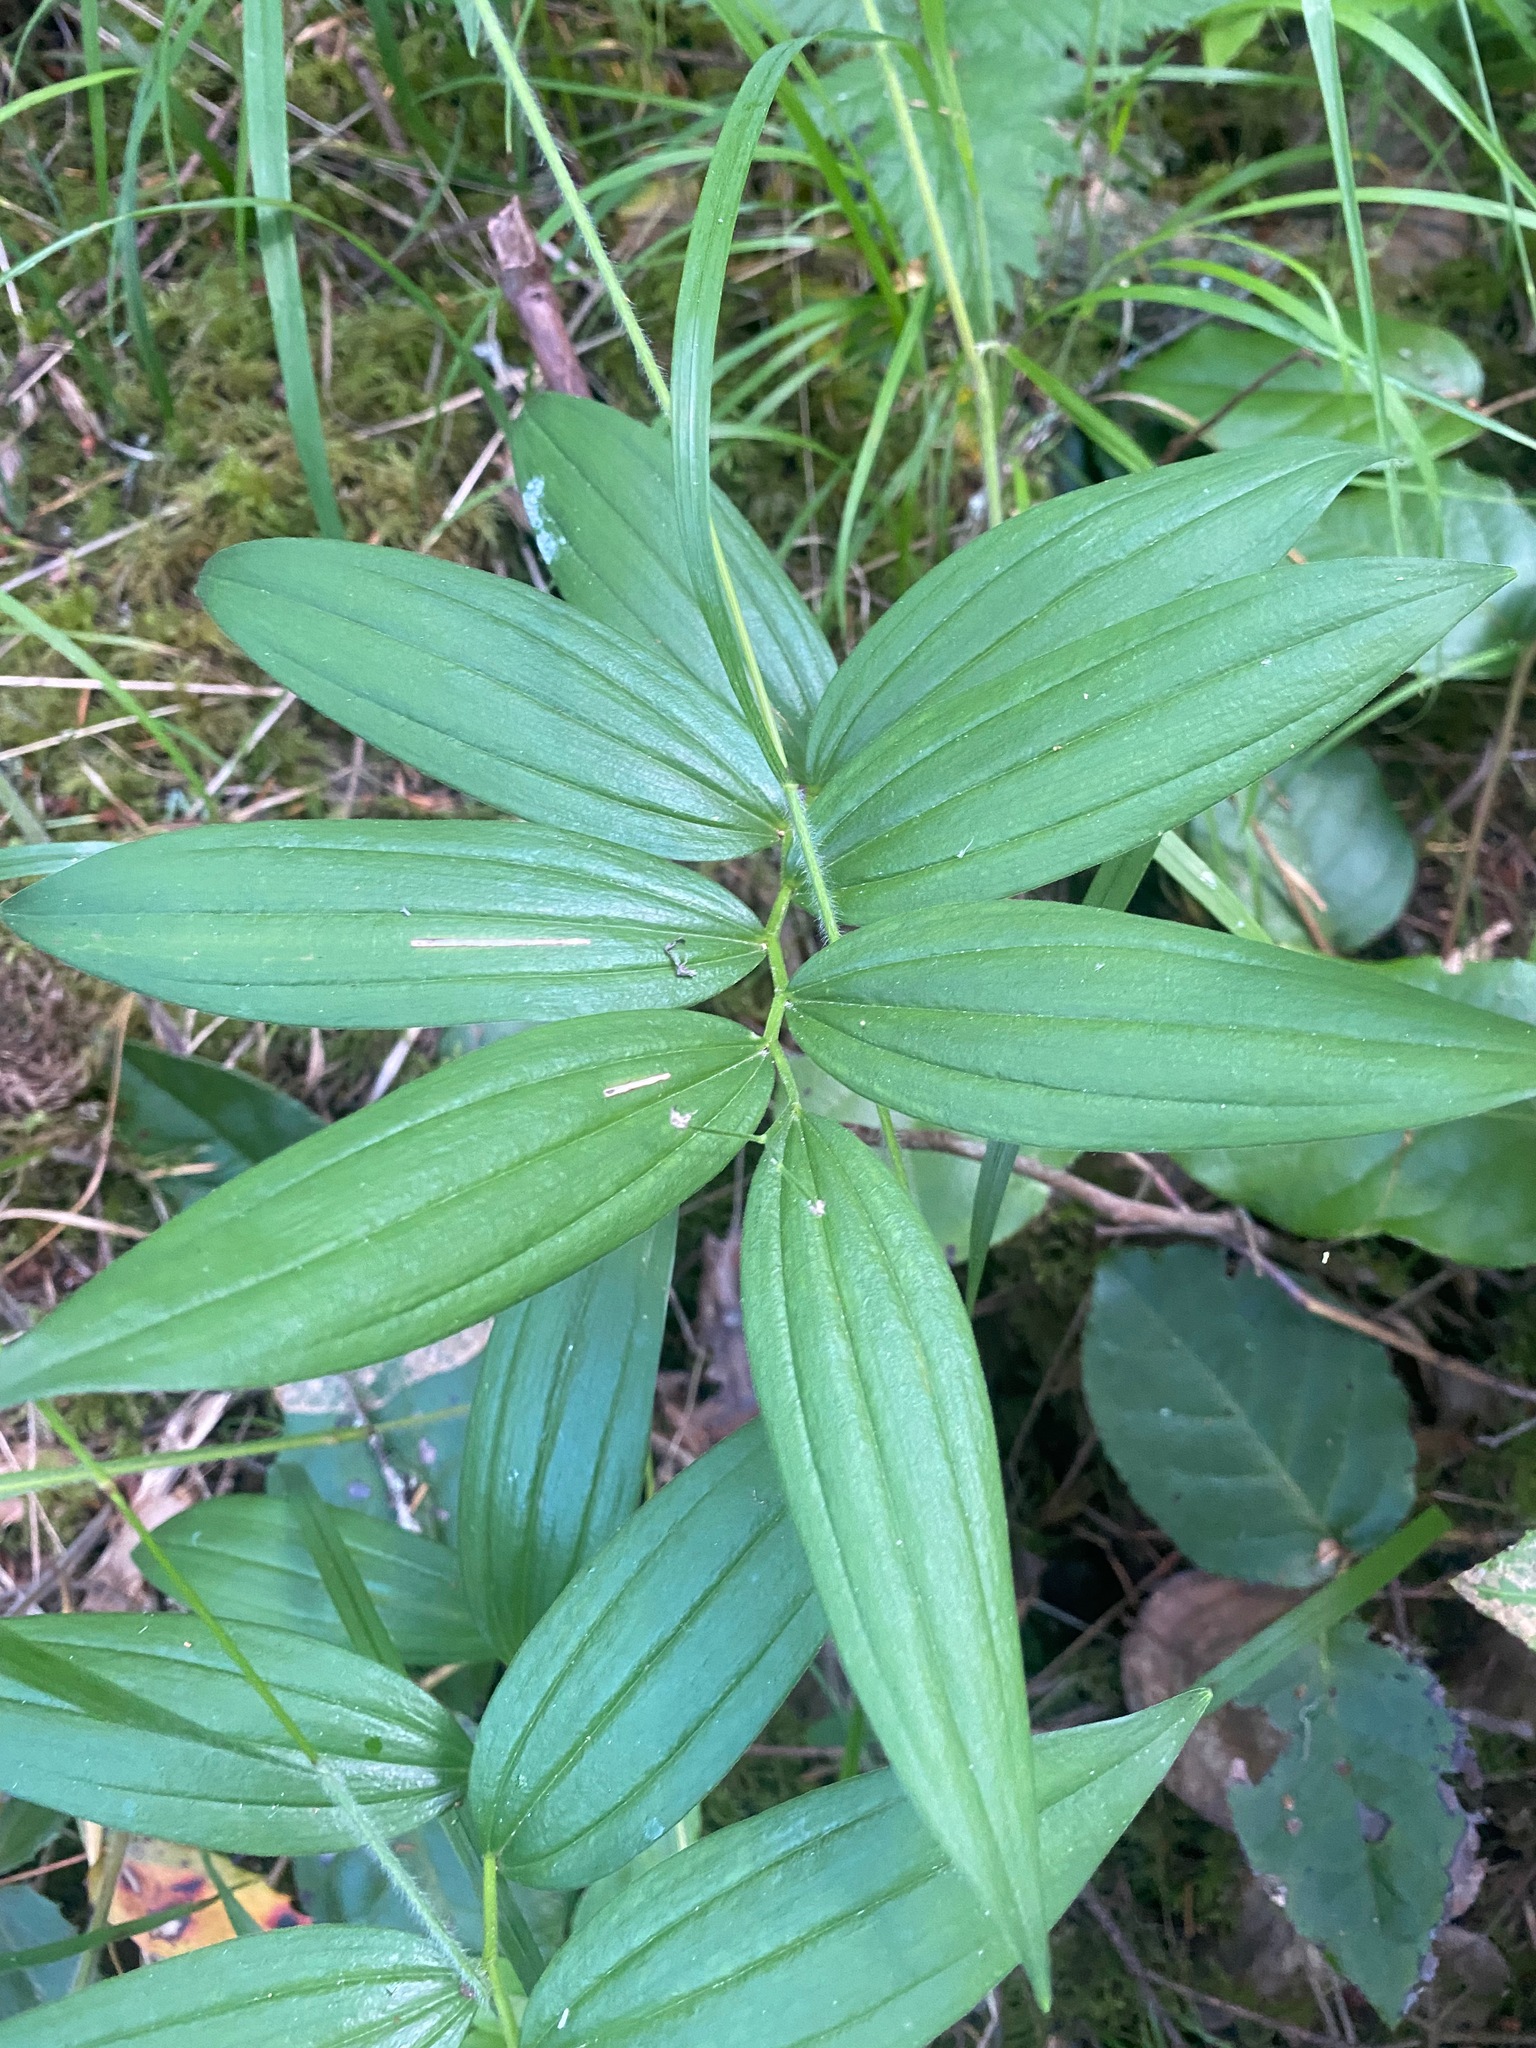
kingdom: Plantae
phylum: Tracheophyta
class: Liliopsida
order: Asparagales
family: Asparagaceae
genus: Maianthemum
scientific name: Maianthemum stellatum
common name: Little false solomon's seal
